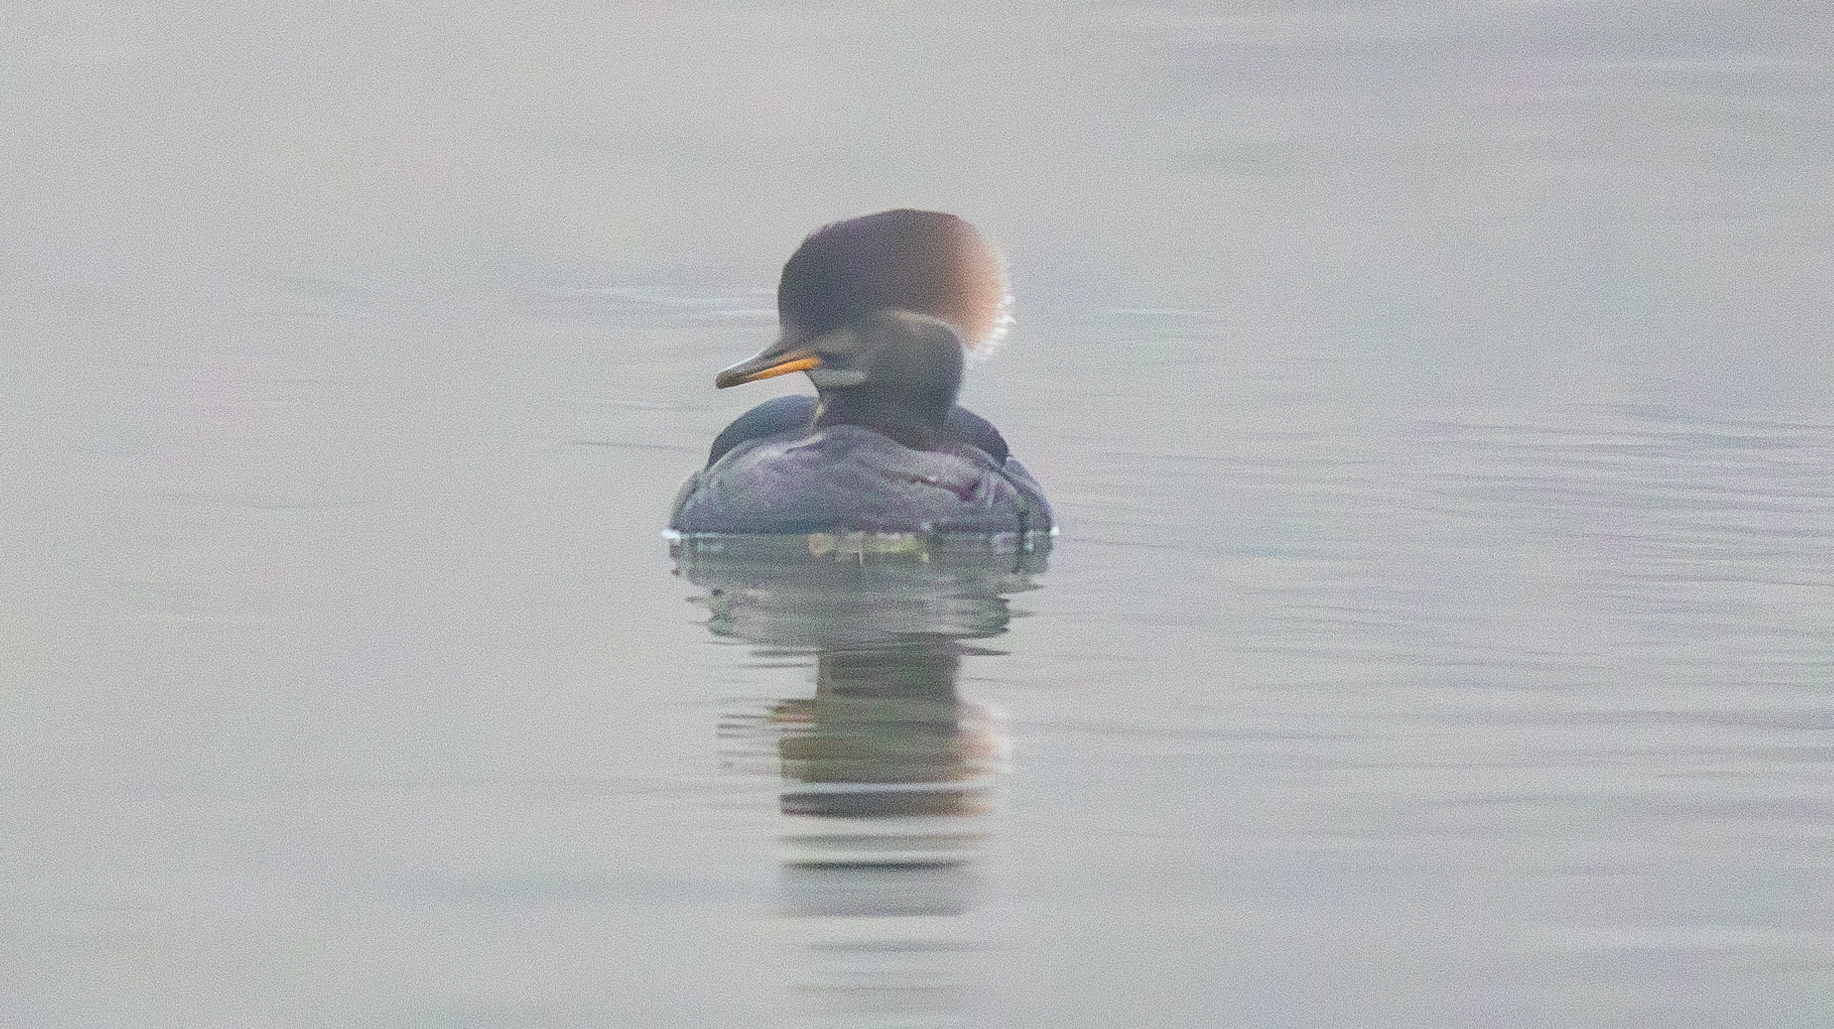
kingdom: Animalia
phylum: Chordata
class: Aves
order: Anseriformes
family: Anatidae
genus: Lophodytes
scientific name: Lophodytes cucullatus
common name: Hooded merganser
